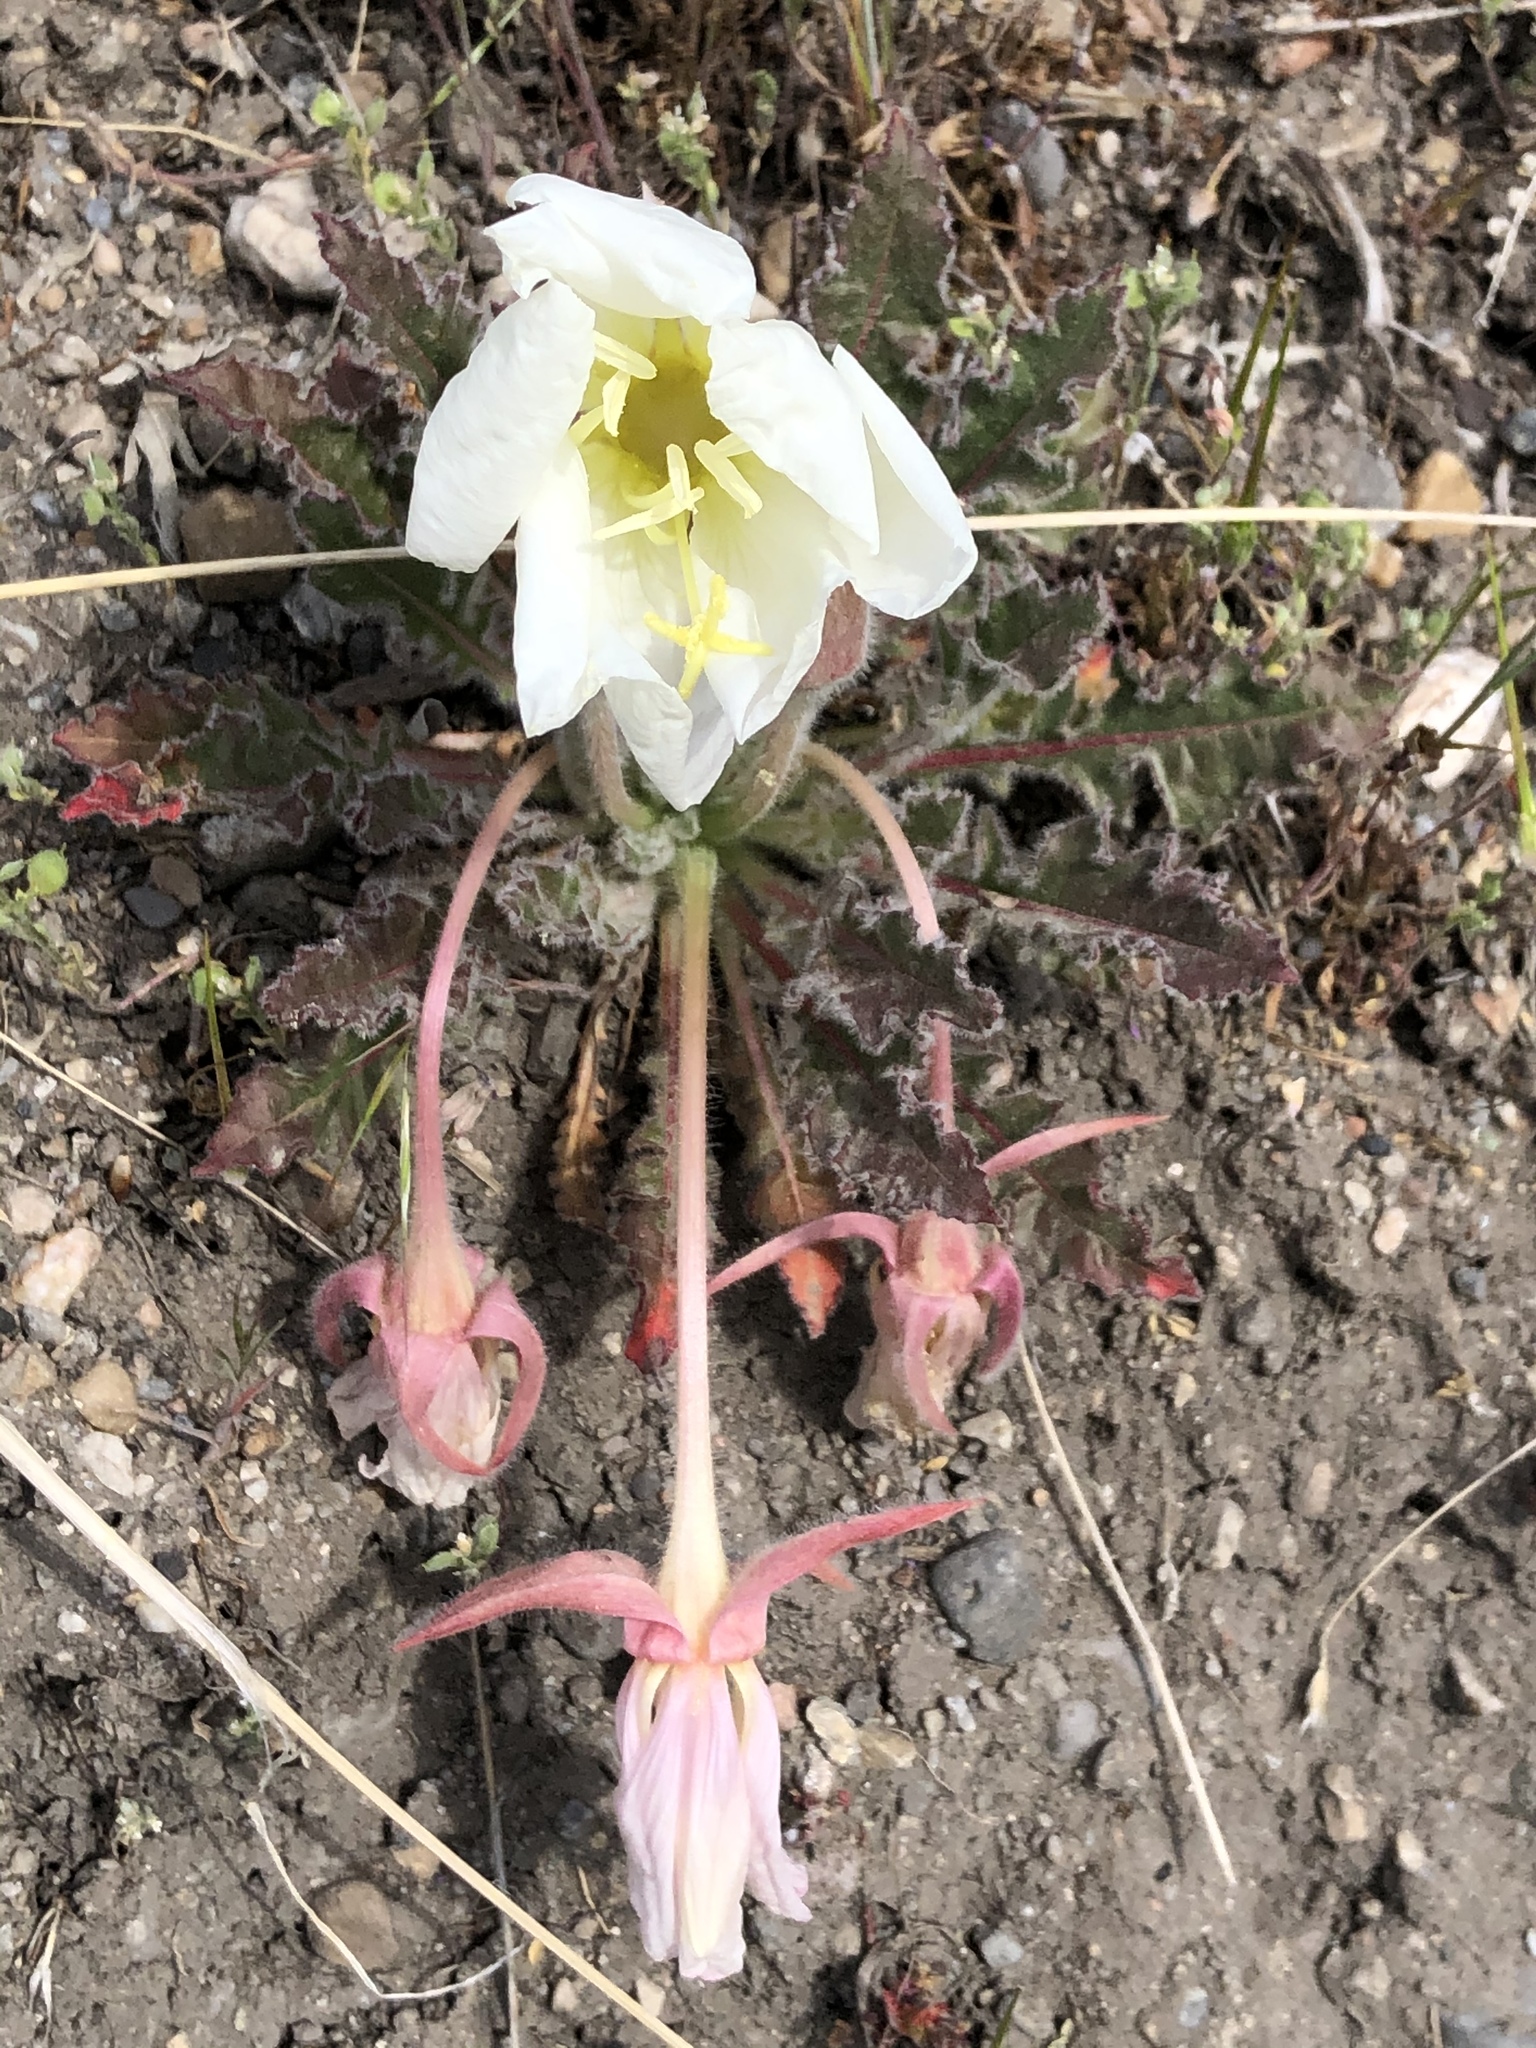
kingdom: Plantae
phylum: Tracheophyta
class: Magnoliopsida
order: Myrtales
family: Onagraceae
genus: Oenothera
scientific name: Oenothera cespitosa
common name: Tufted evening-primrose
